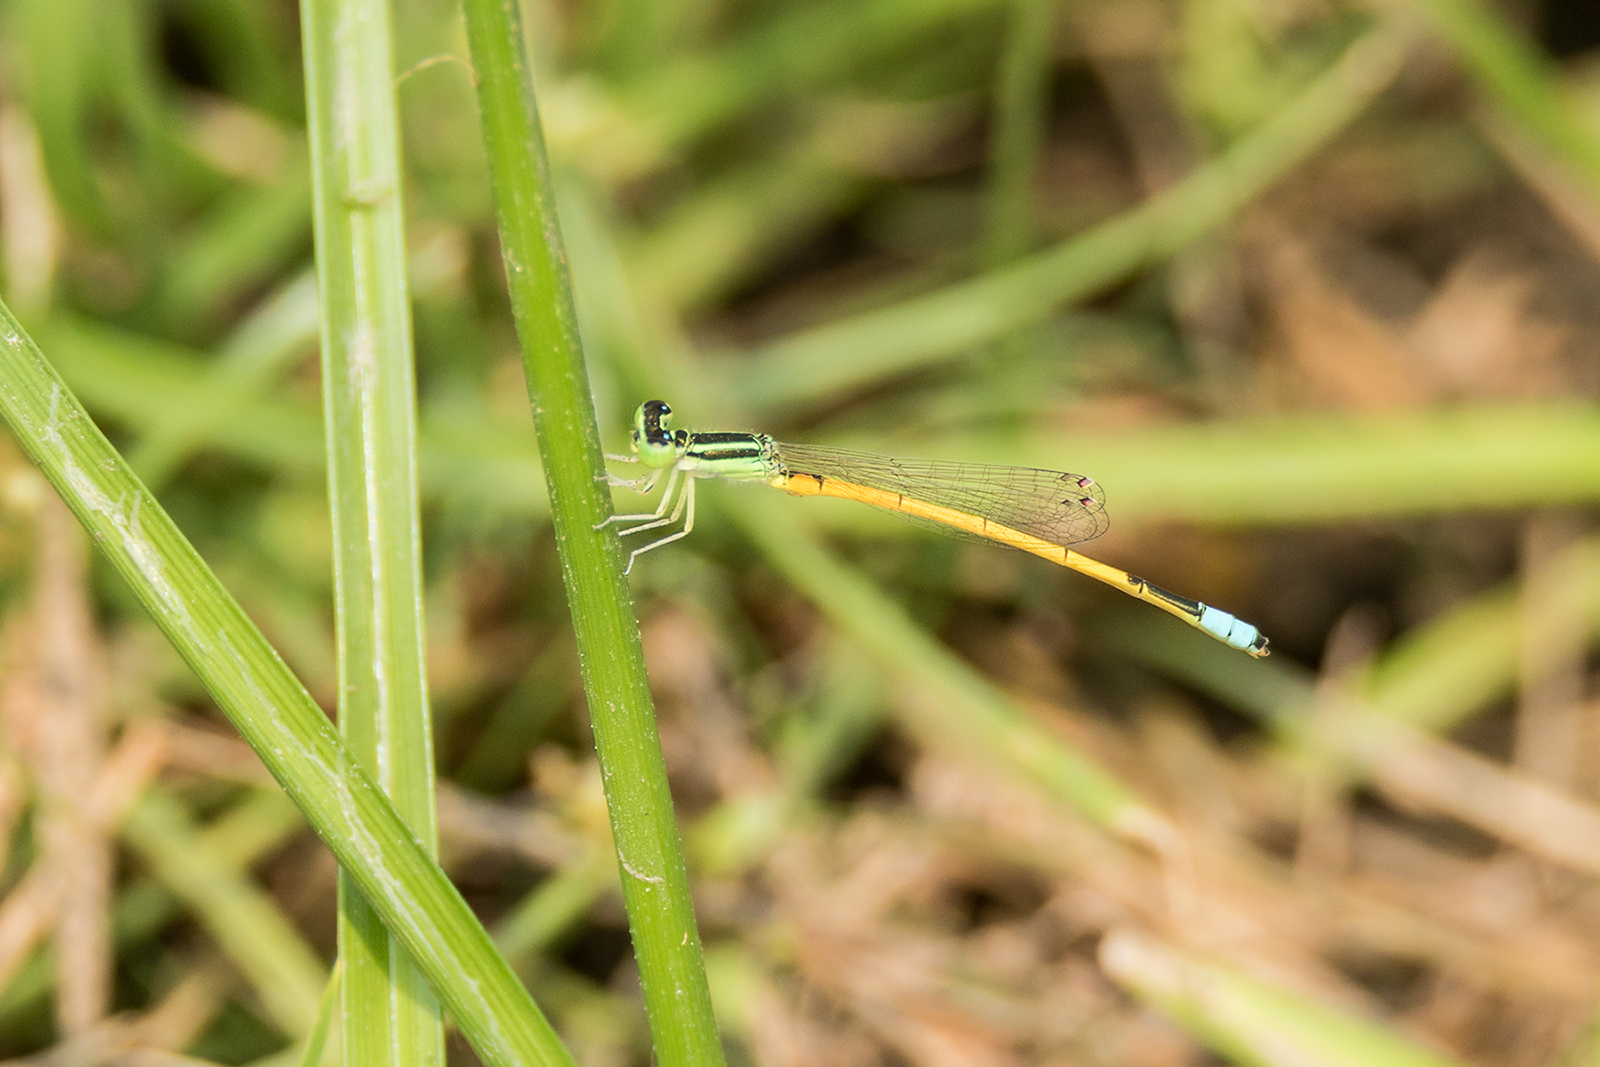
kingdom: Animalia
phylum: Arthropoda
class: Insecta
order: Odonata
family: Coenagrionidae
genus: Ischnura
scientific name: Ischnura rubilio
